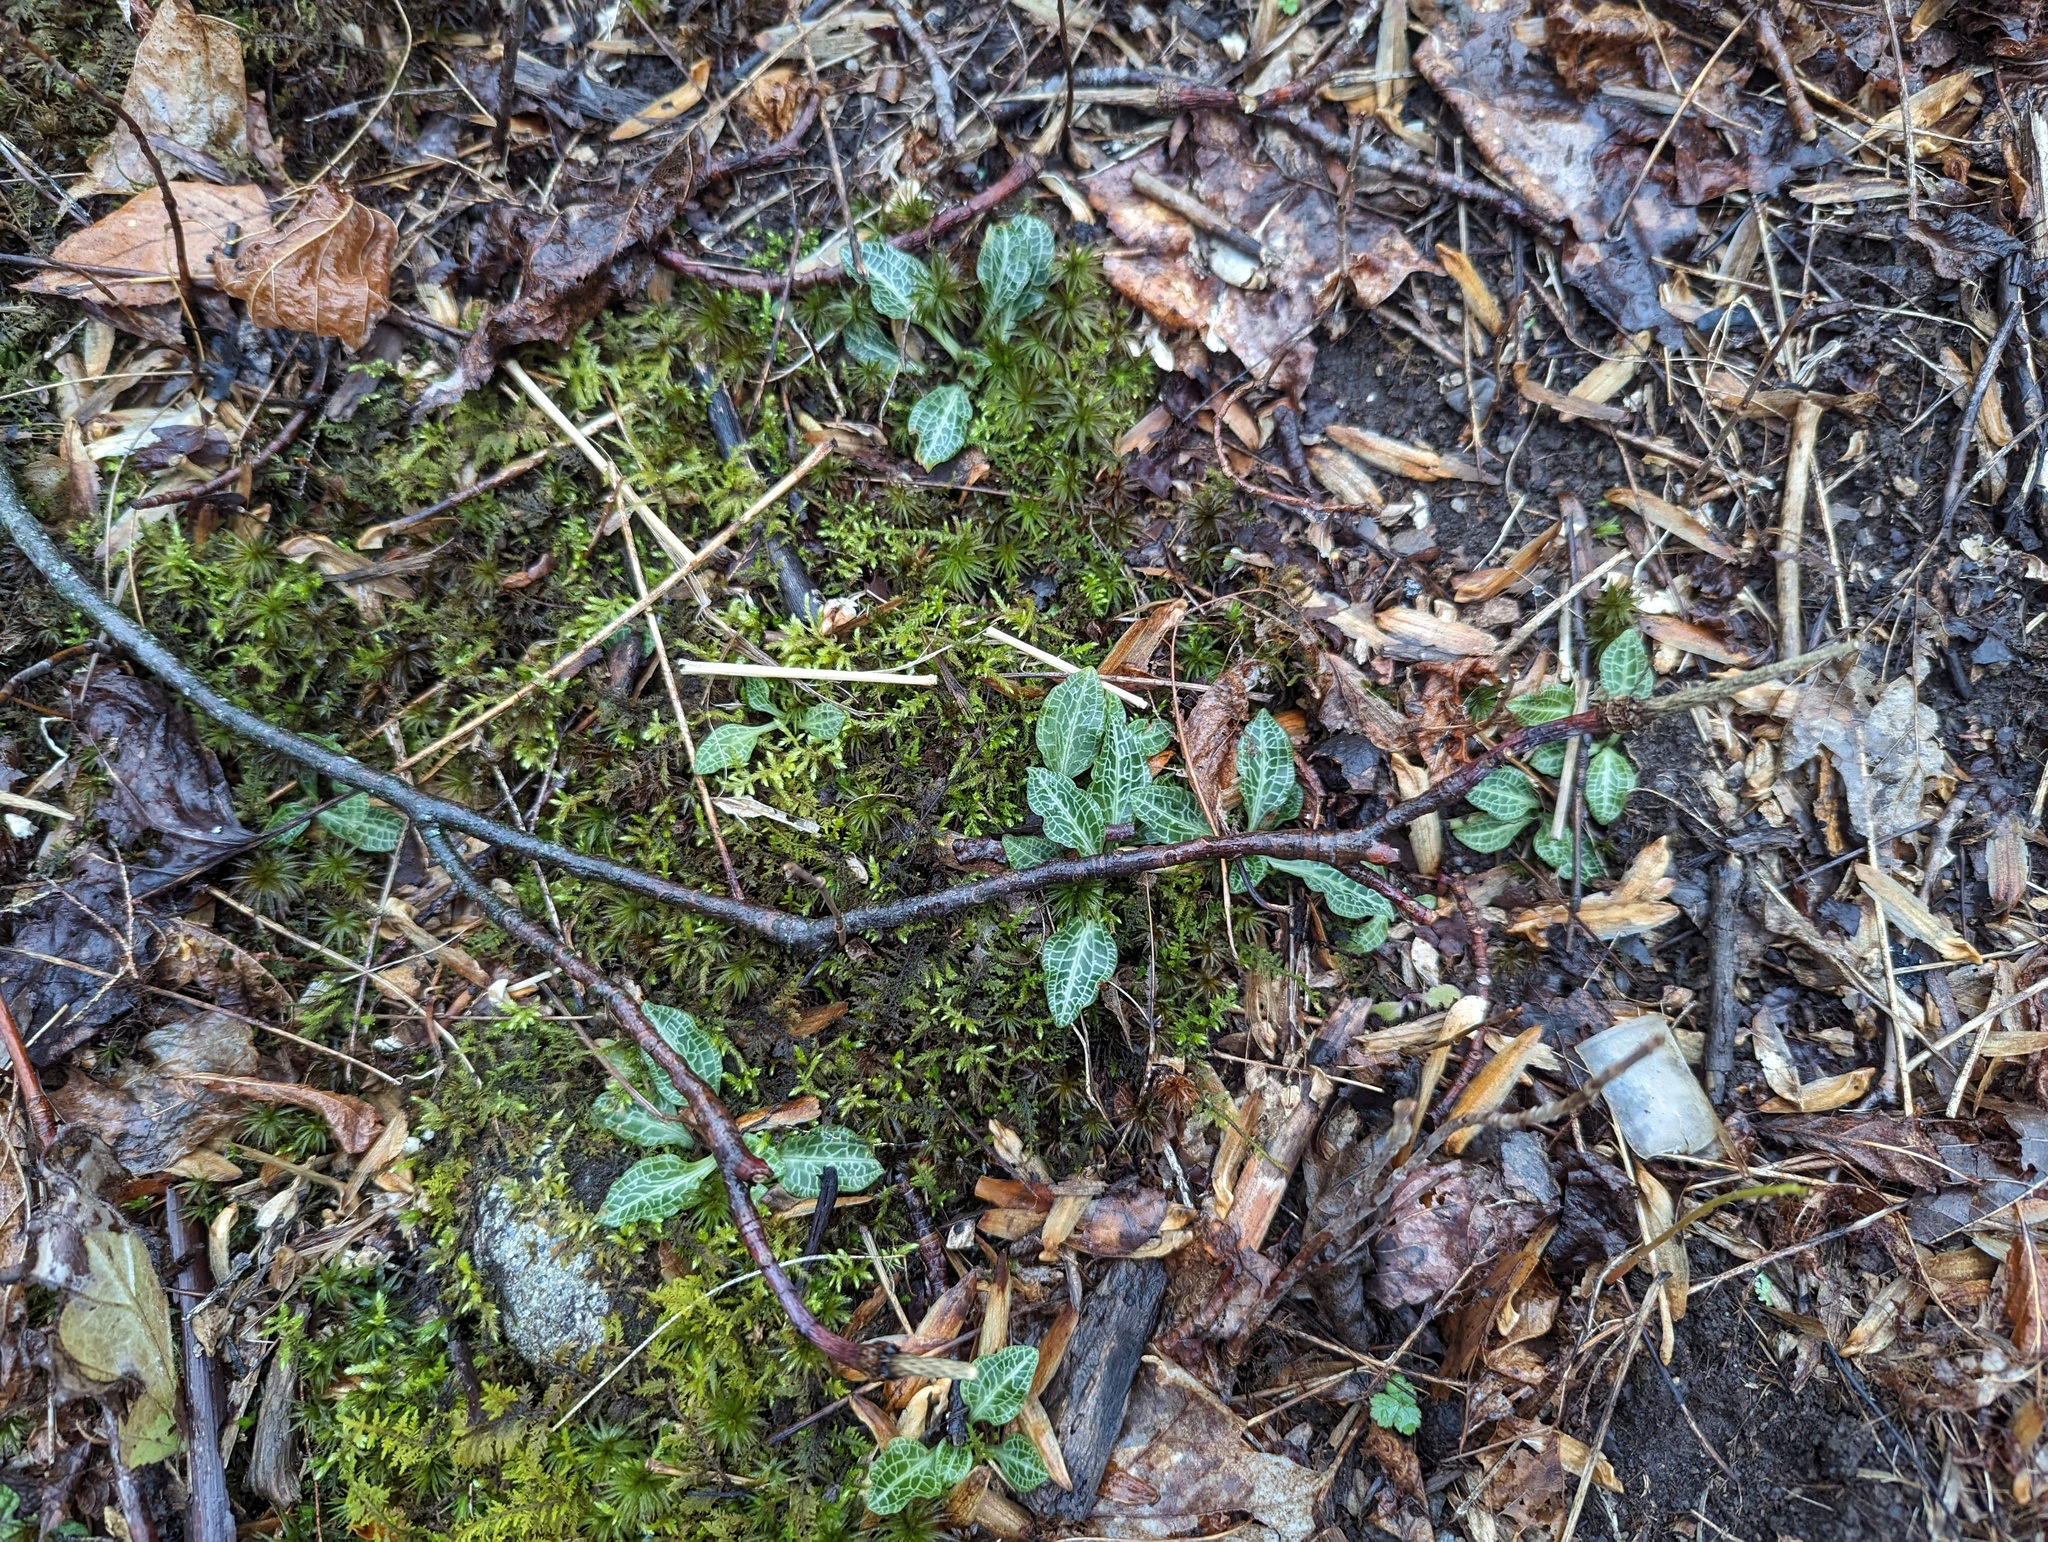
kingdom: Plantae
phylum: Tracheophyta
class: Liliopsida
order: Asparagales
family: Orchidaceae
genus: Goodyera
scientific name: Goodyera pubescens
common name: Downy rattlesnake-plantain
